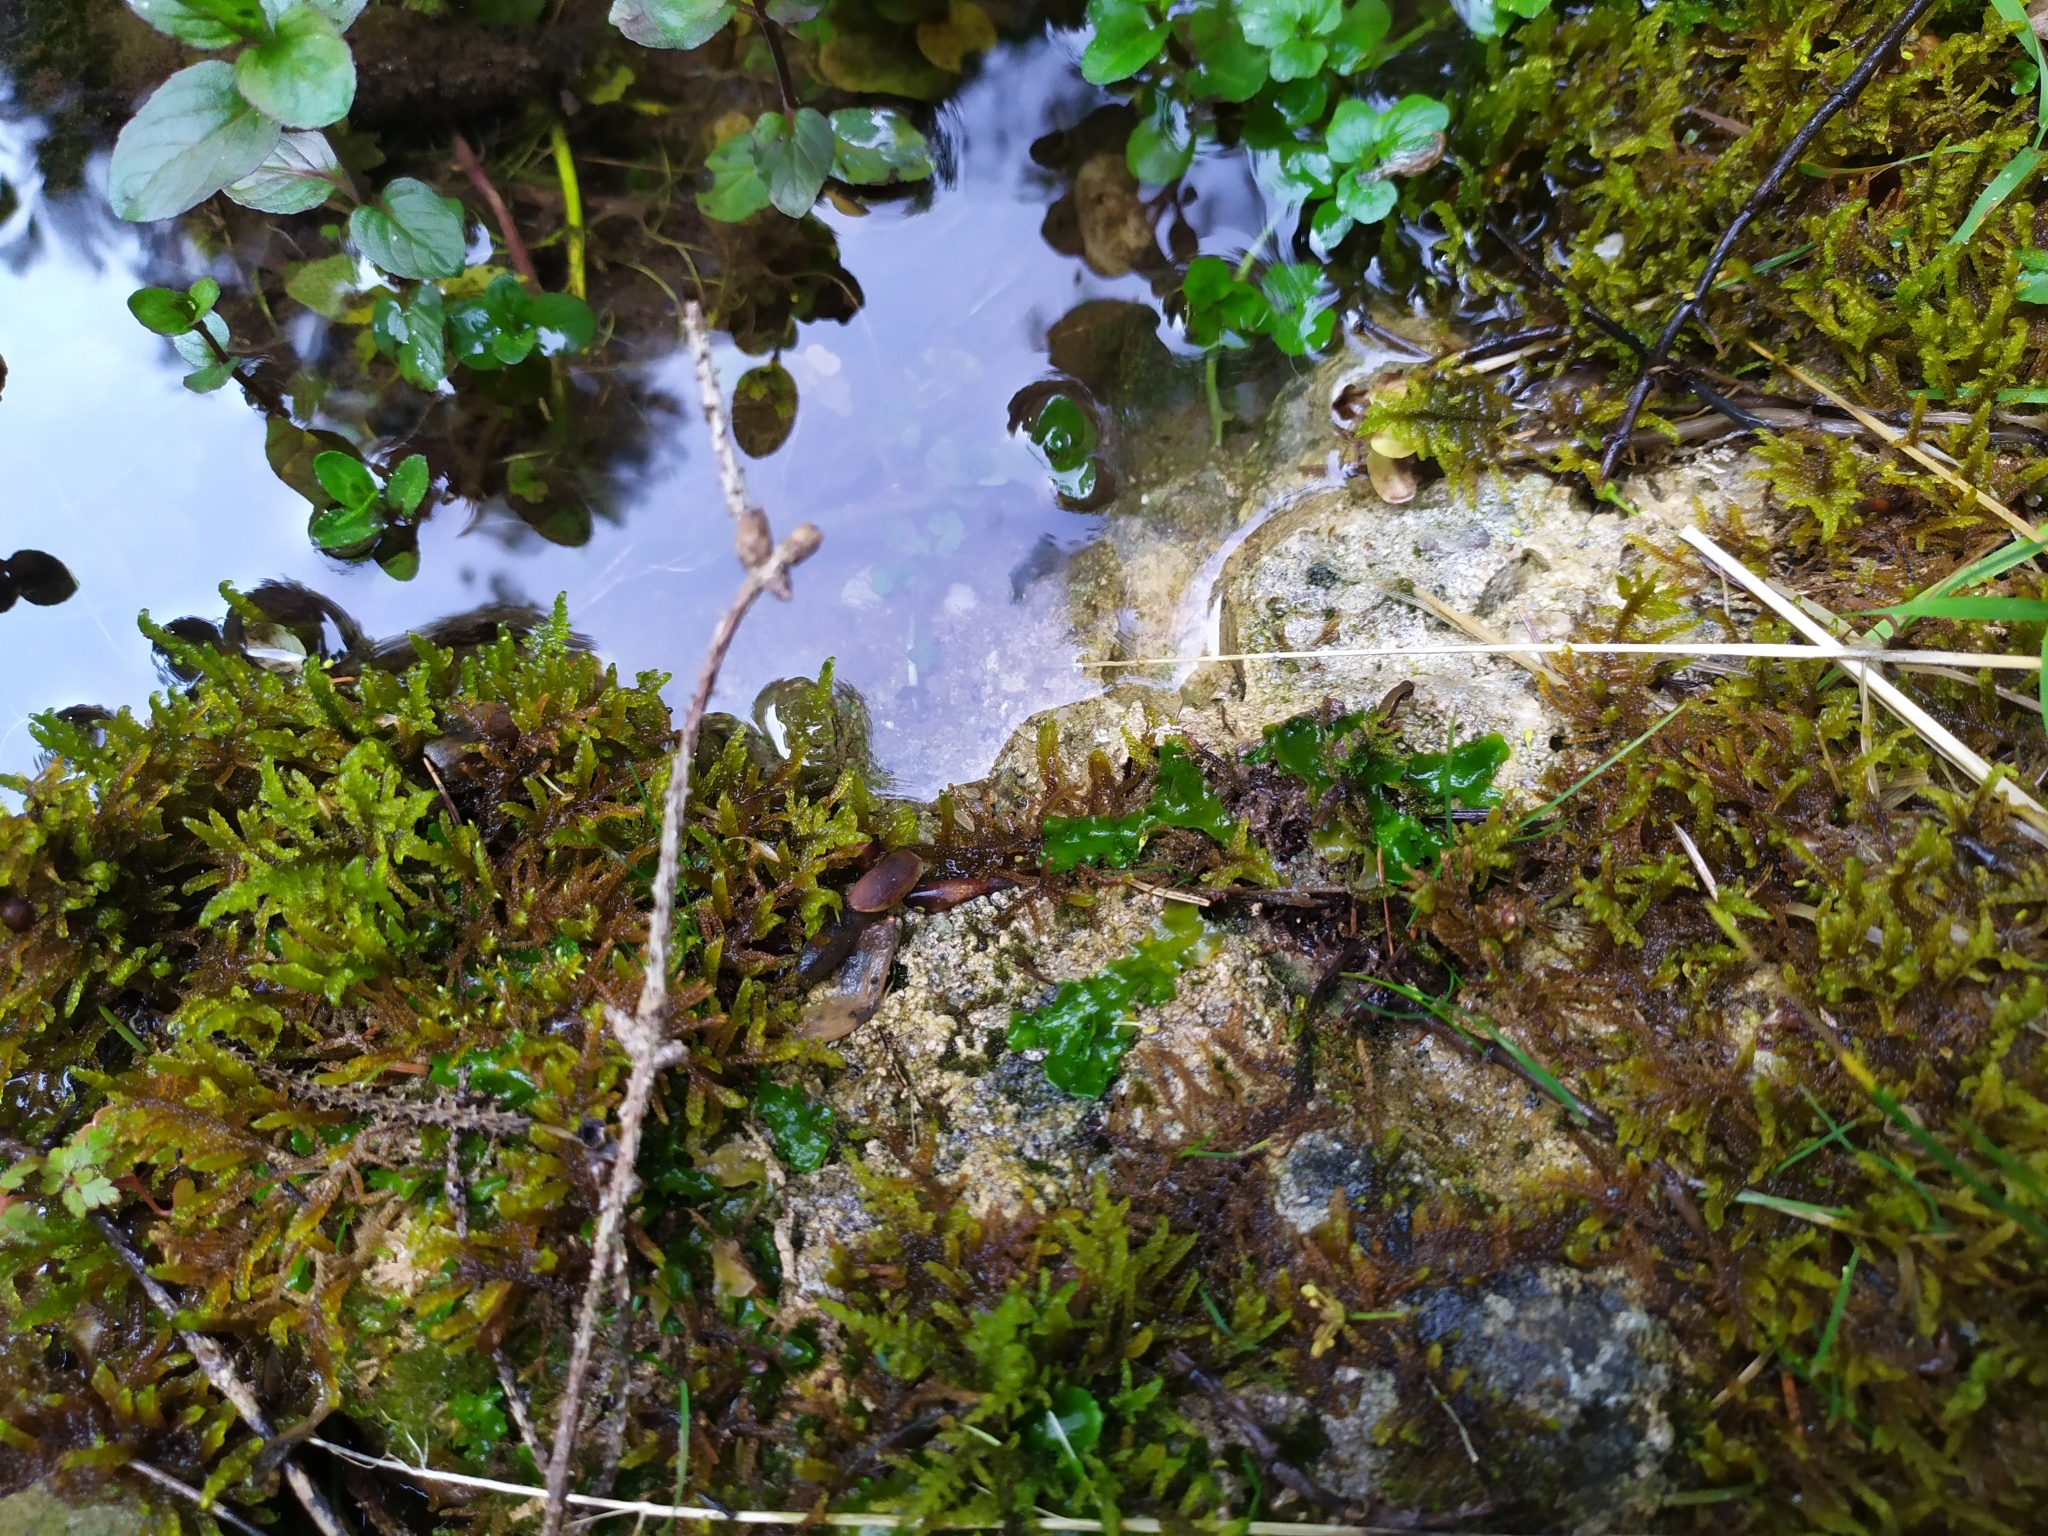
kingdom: Plantae
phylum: Marchantiophyta
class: Jungermanniopsida
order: Metzgeriales
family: Aneuraceae
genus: Aneura
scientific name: Aneura pinguis
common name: Common greasewort
